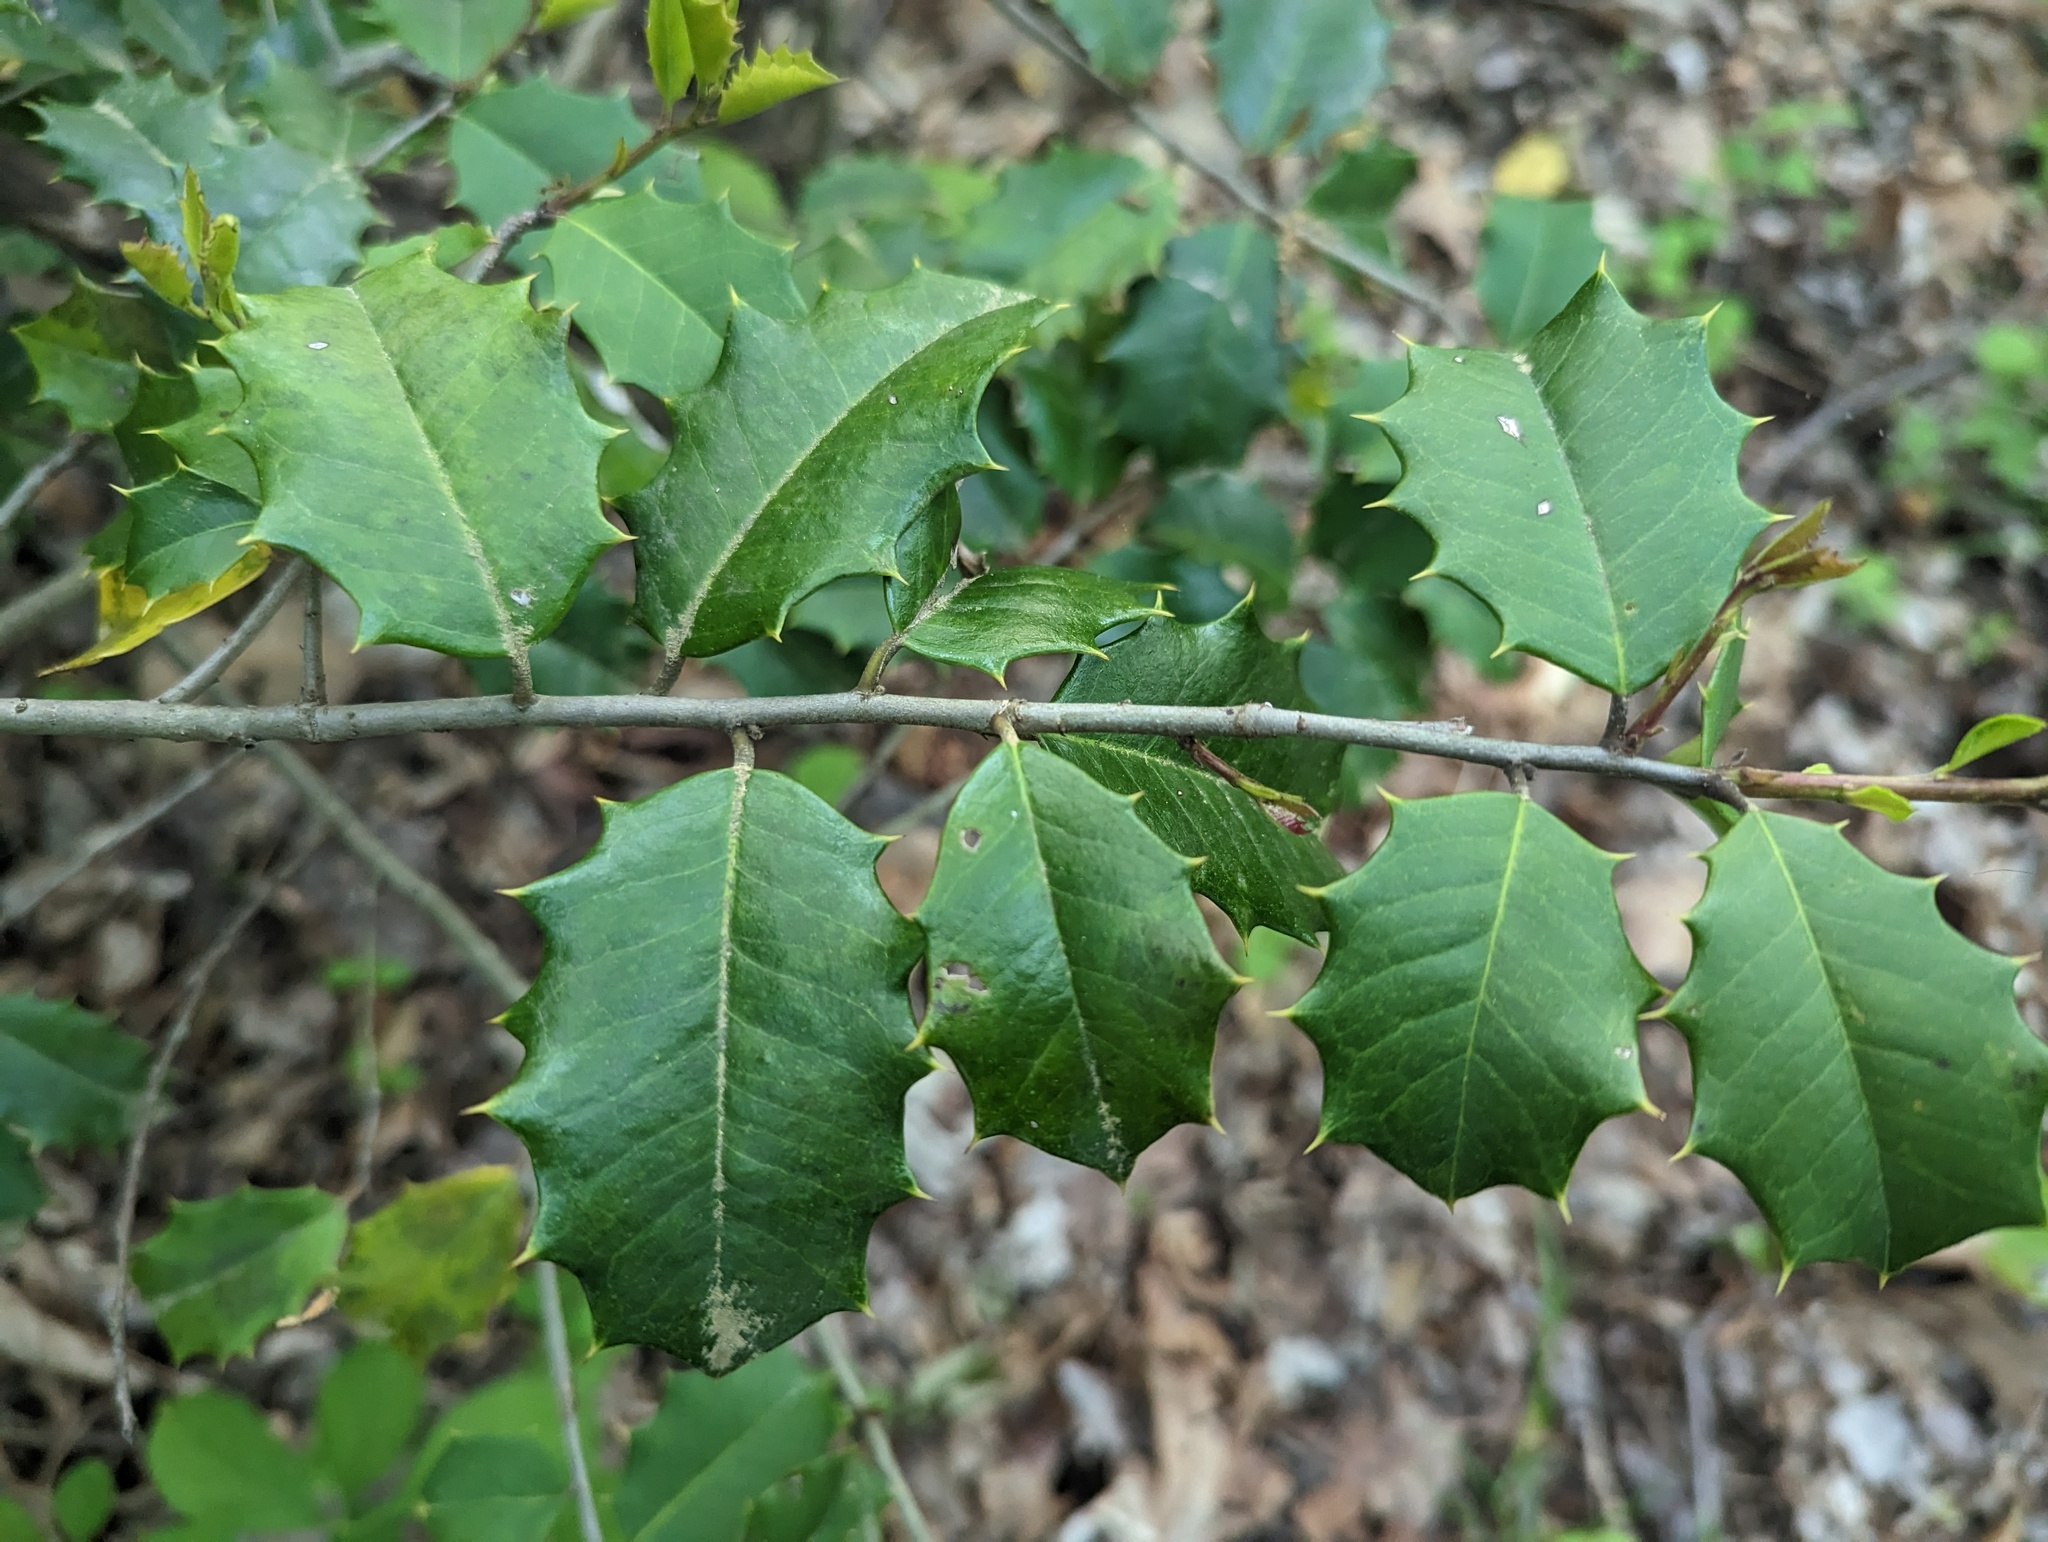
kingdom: Plantae
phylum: Tracheophyta
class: Magnoliopsida
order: Aquifoliales
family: Aquifoliaceae
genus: Ilex
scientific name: Ilex opaca
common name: American holly
